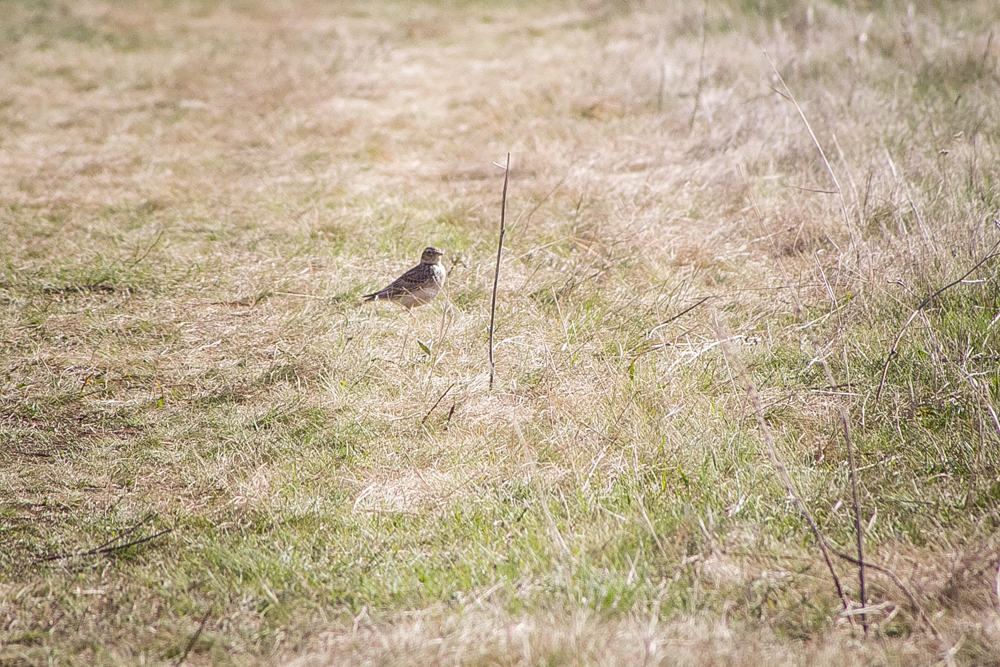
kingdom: Animalia
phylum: Chordata
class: Aves
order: Passeriformes
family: Alaudidae
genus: Alauda
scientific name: Alauda arvensis
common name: Eurasian skylark
